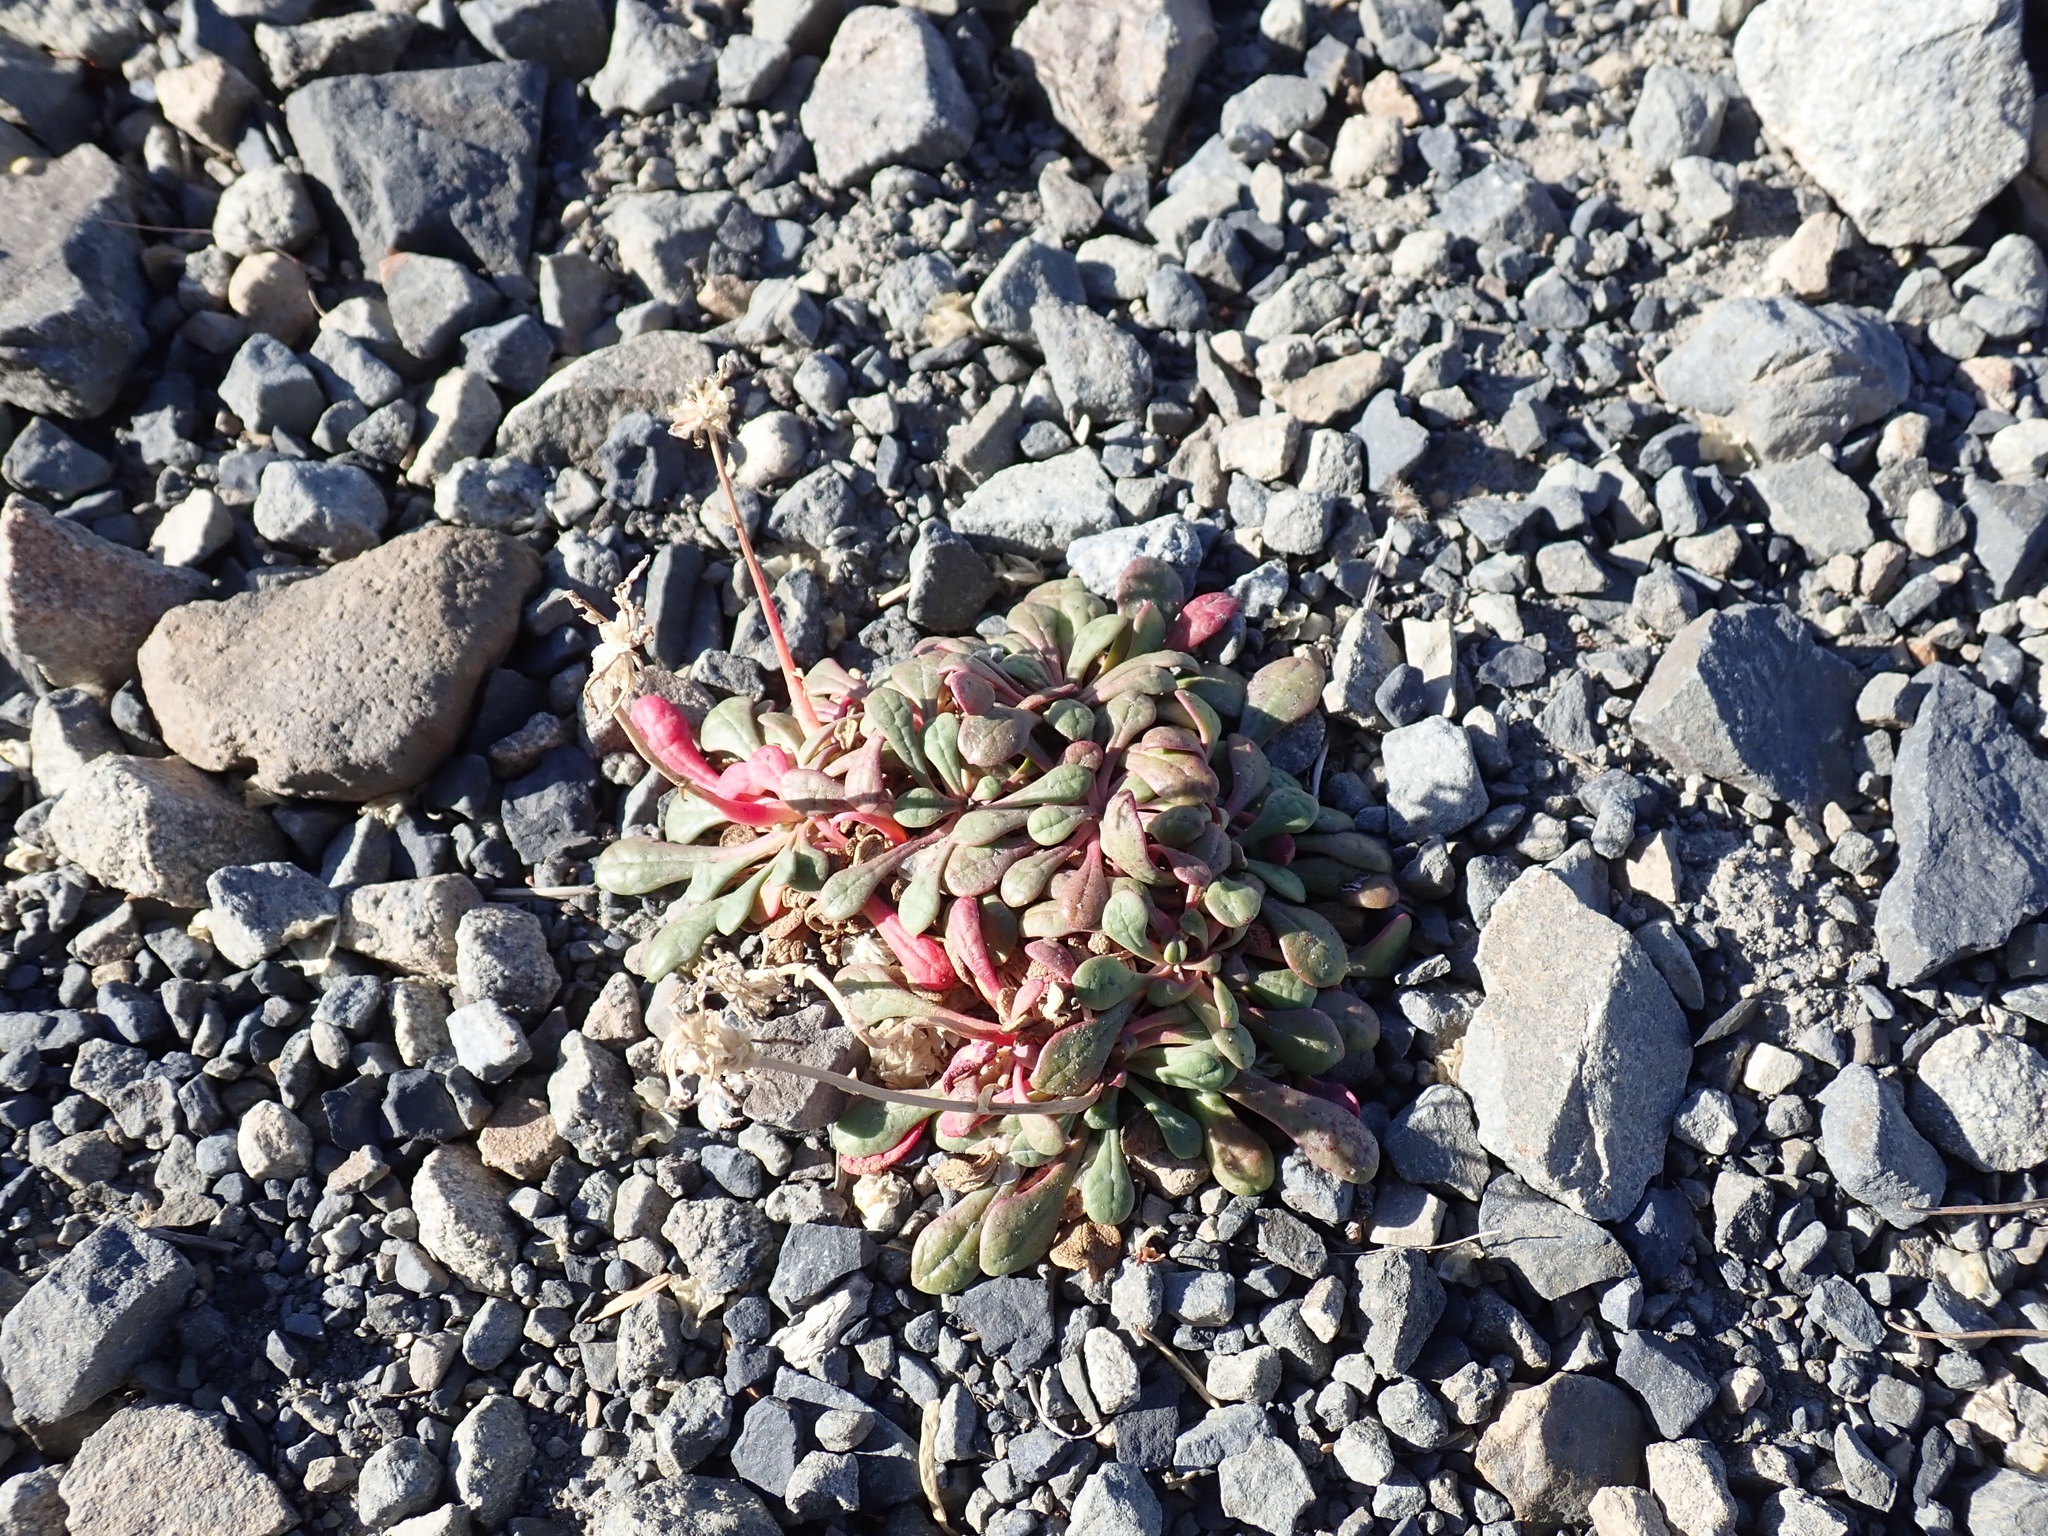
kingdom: Plantae
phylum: Tracheophyta
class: Magnoliopsida
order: Caryophyllales
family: Montiaceae
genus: Calyptridium
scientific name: Calyptridium umbellatum
